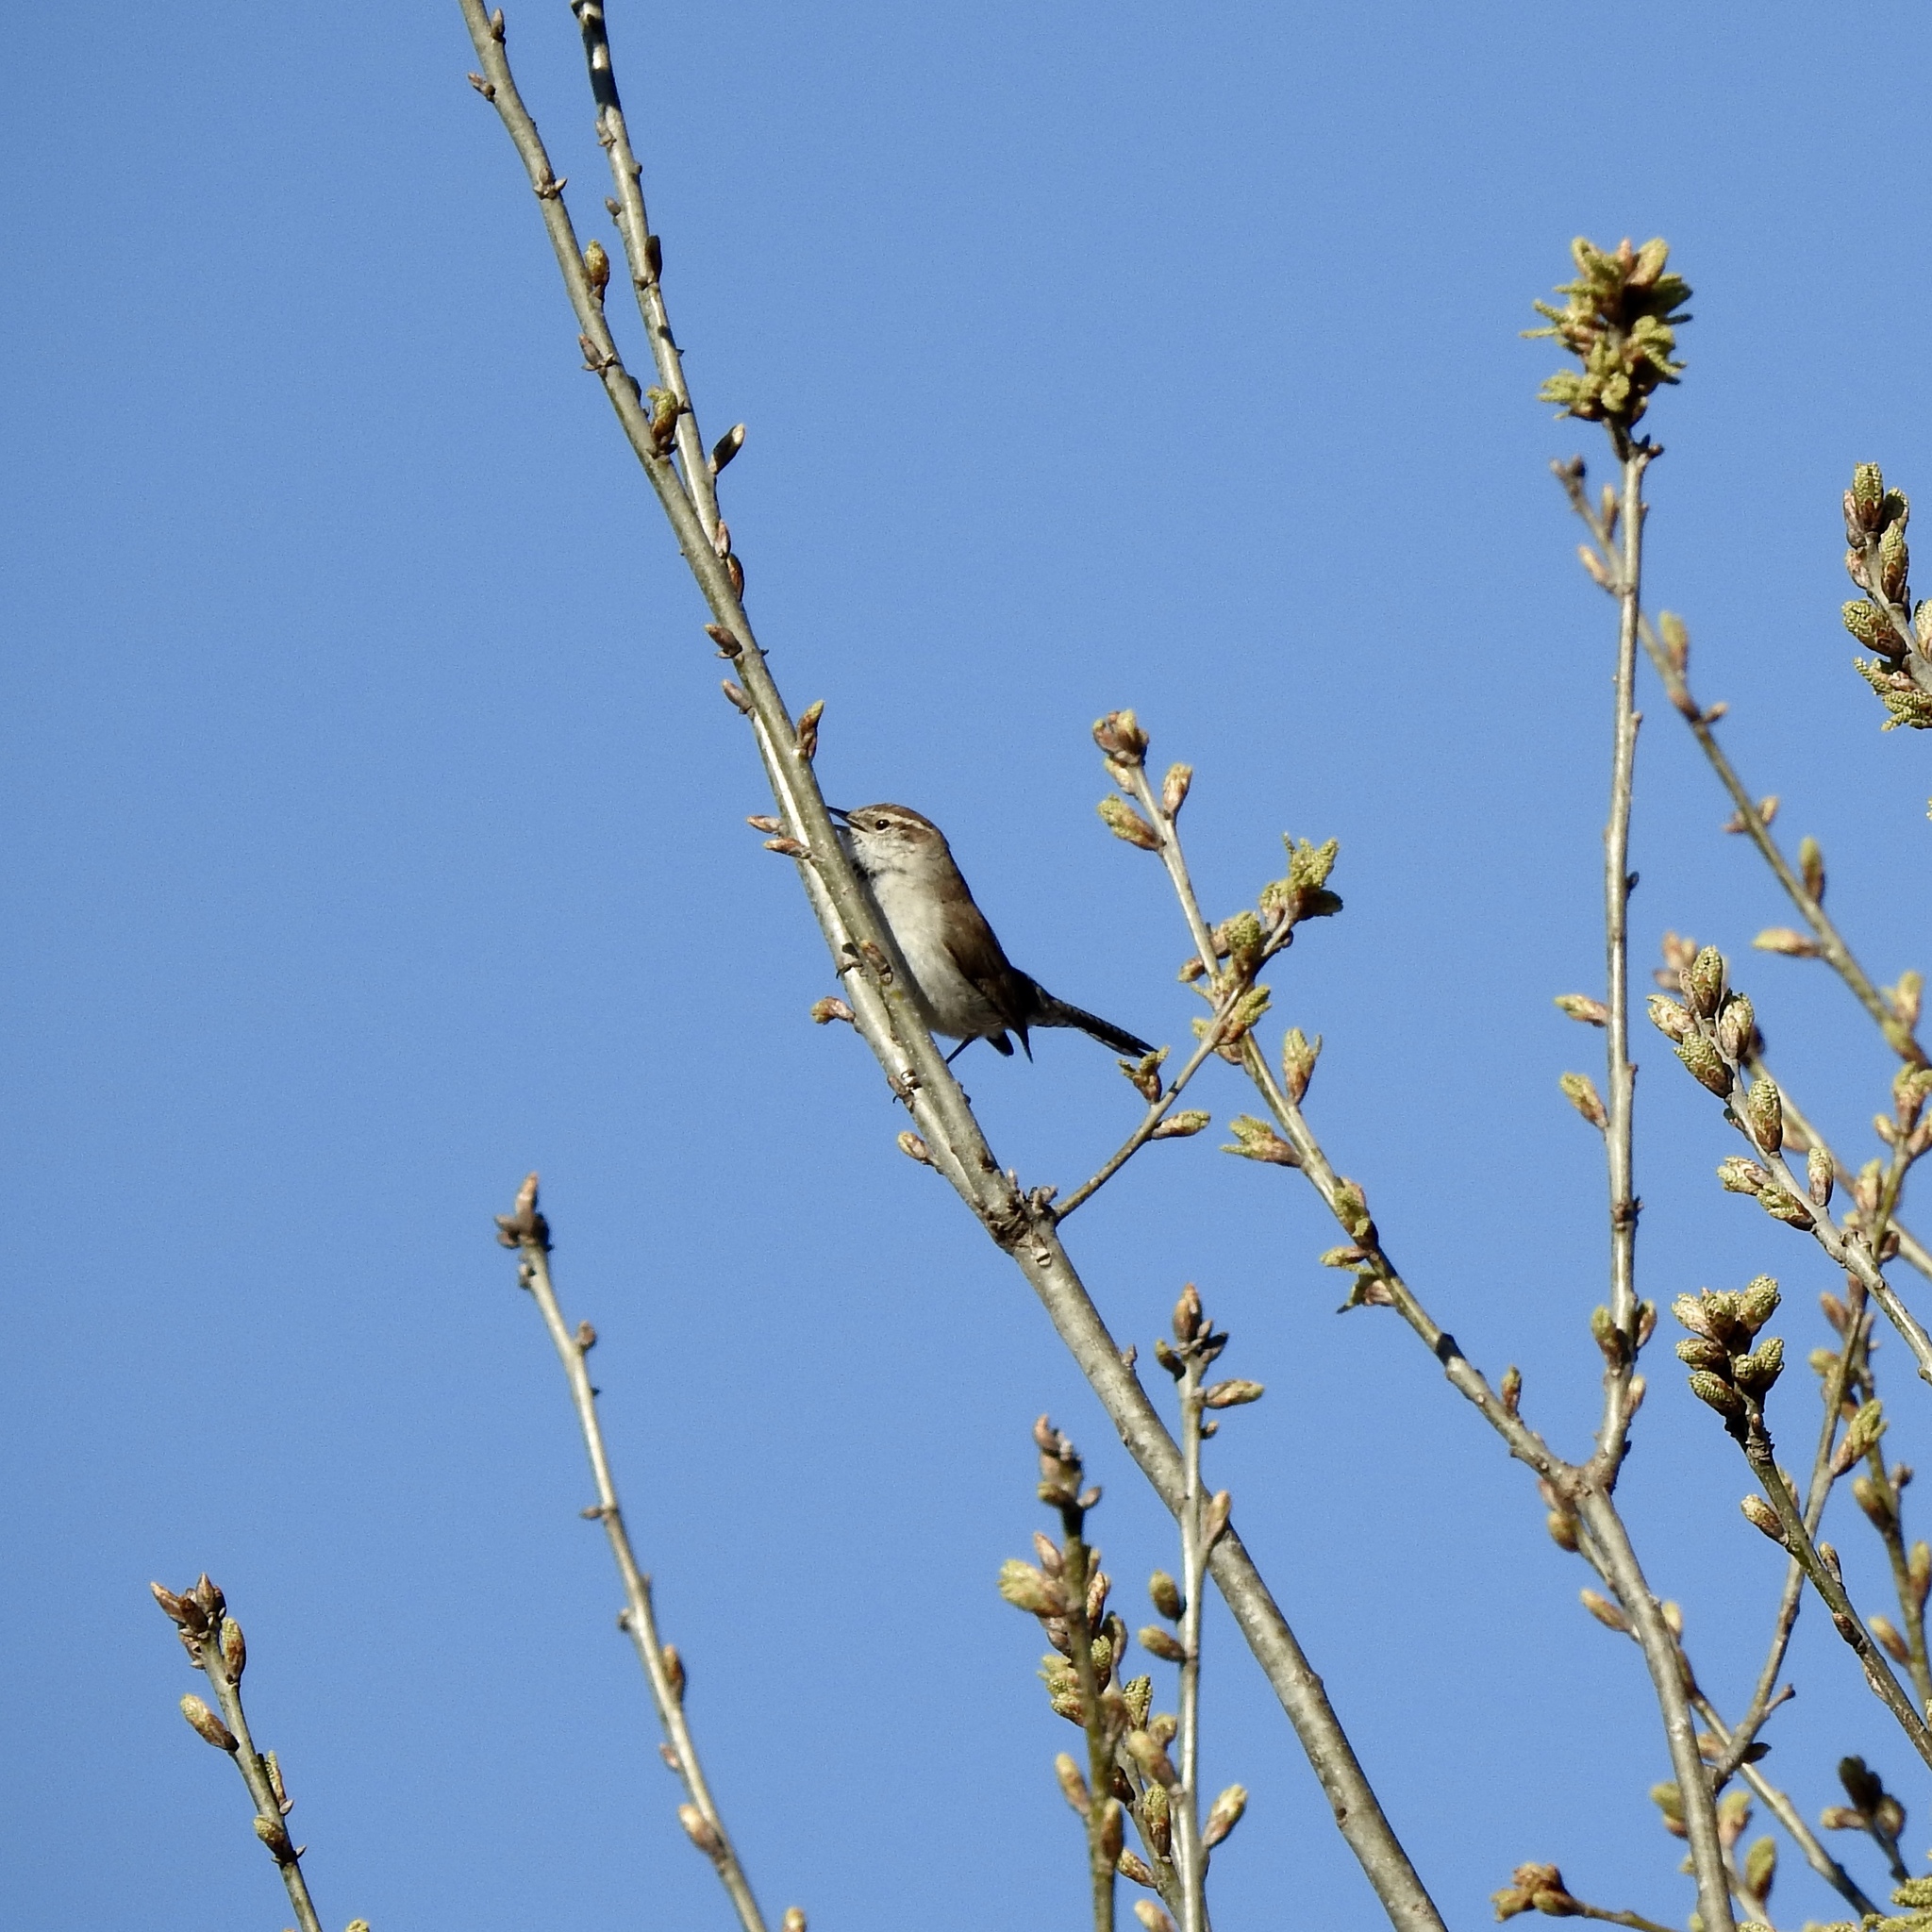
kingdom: Animalia
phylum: Chordata
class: Aves
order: Passeriformes
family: Troglodytidae
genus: Thryomanes
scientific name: Thryomanes bewickii
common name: Bewick's wren
